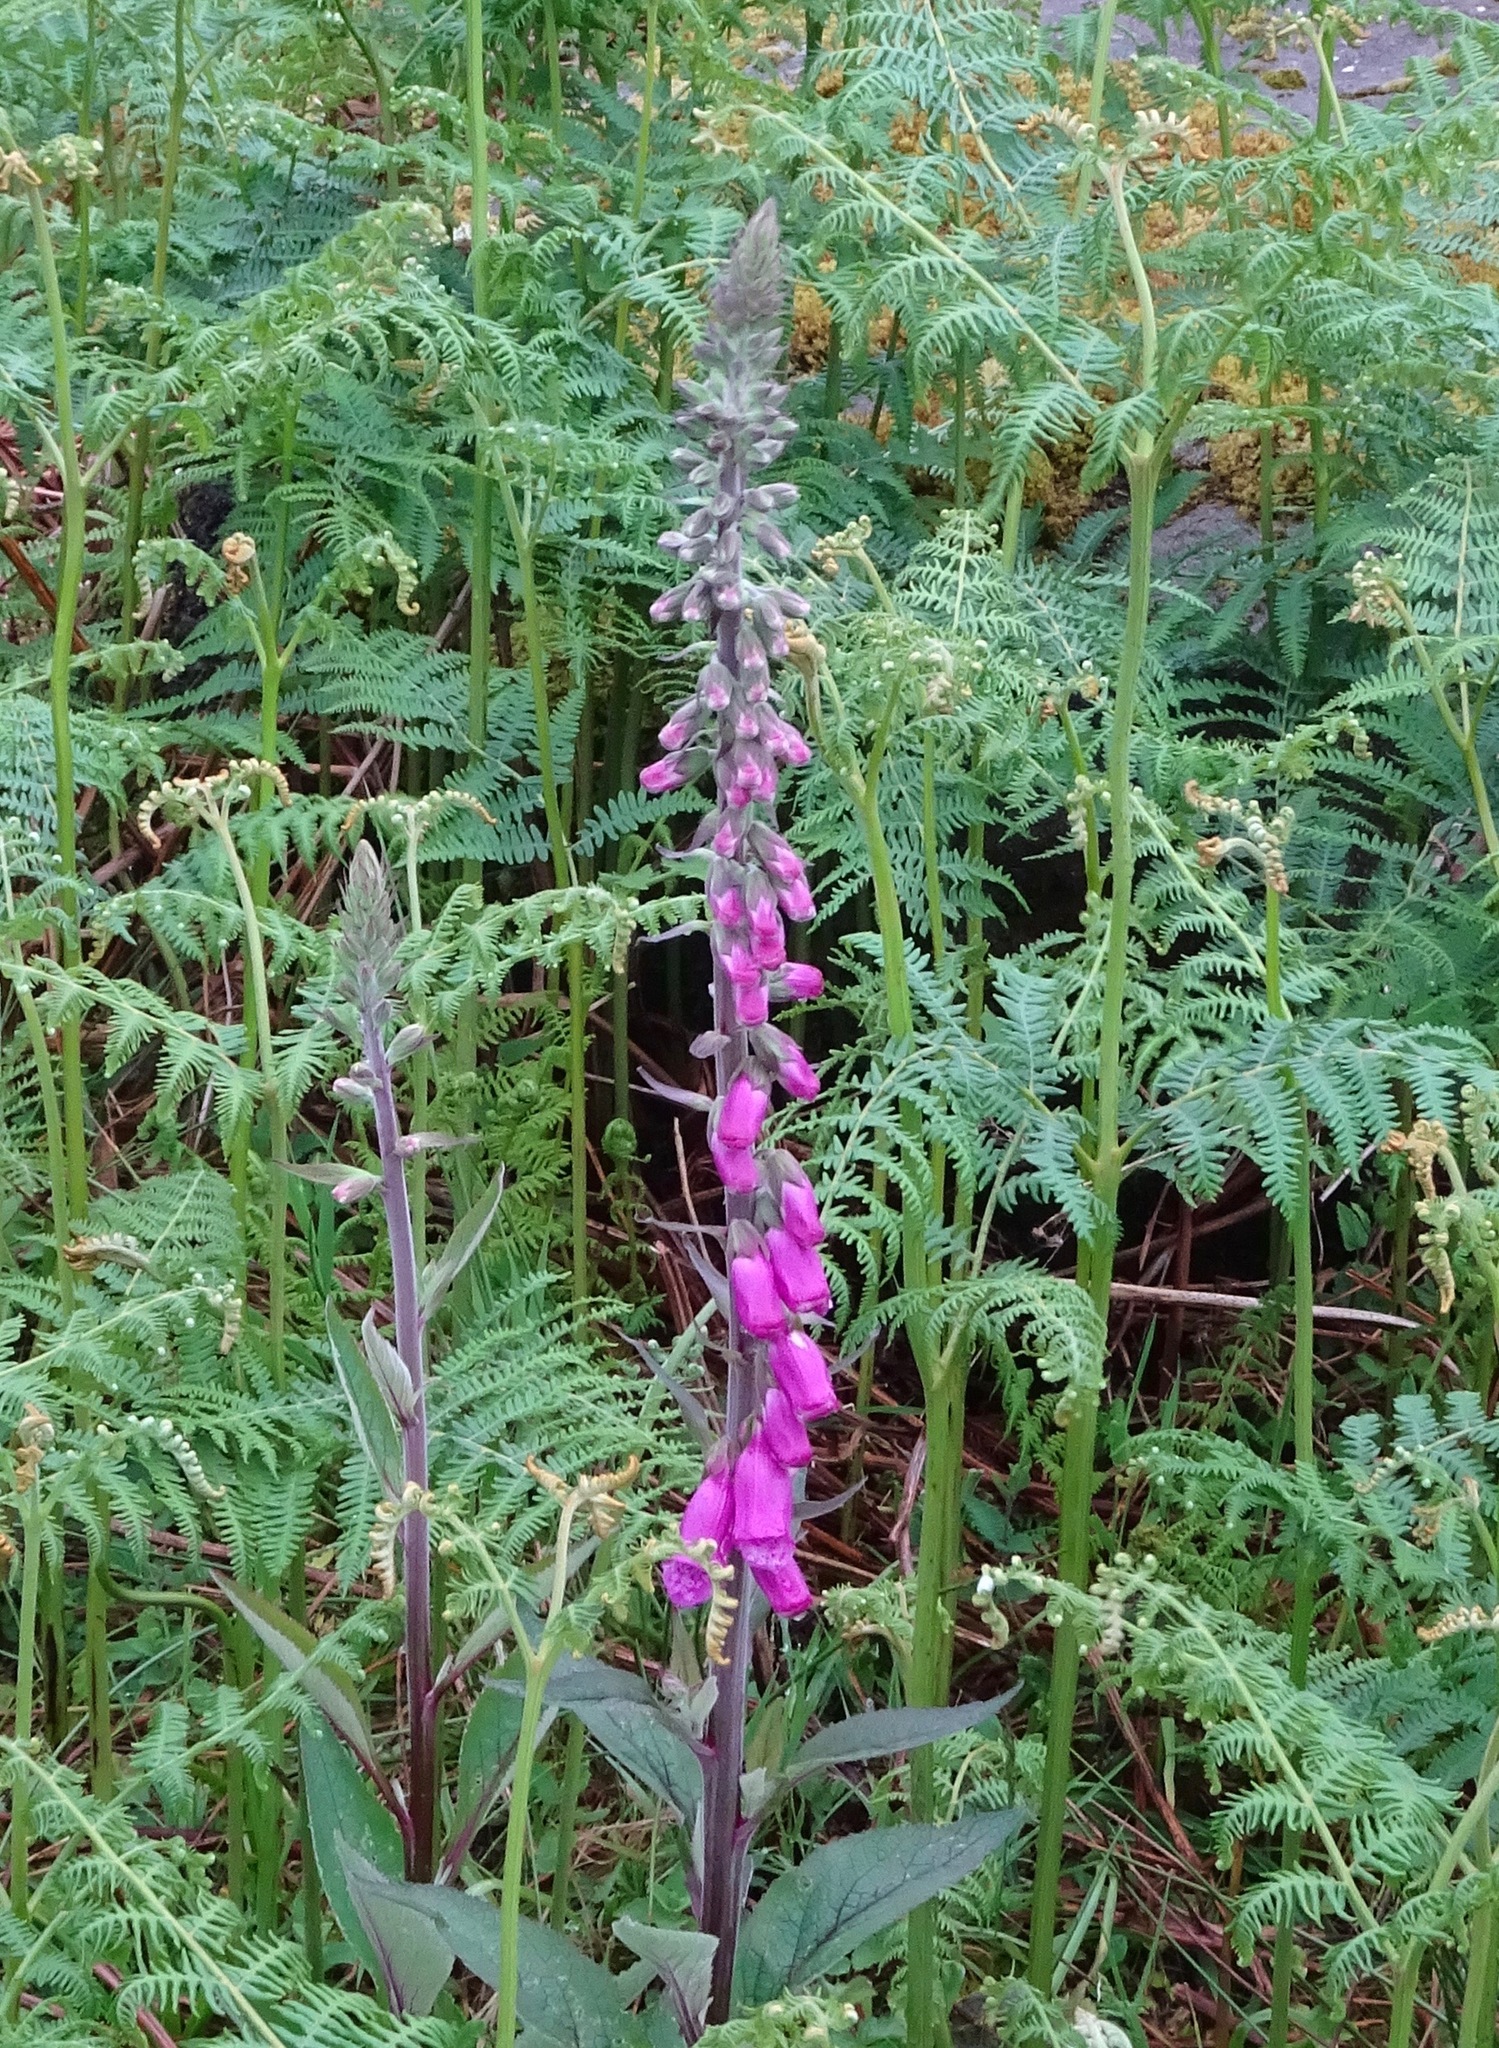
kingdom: Plantae
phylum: Tracheophyta
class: Magnoliopsida
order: Lamiales
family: Plantaginaceae
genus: Digitalis
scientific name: Digitalis purpurea
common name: Foxglove
